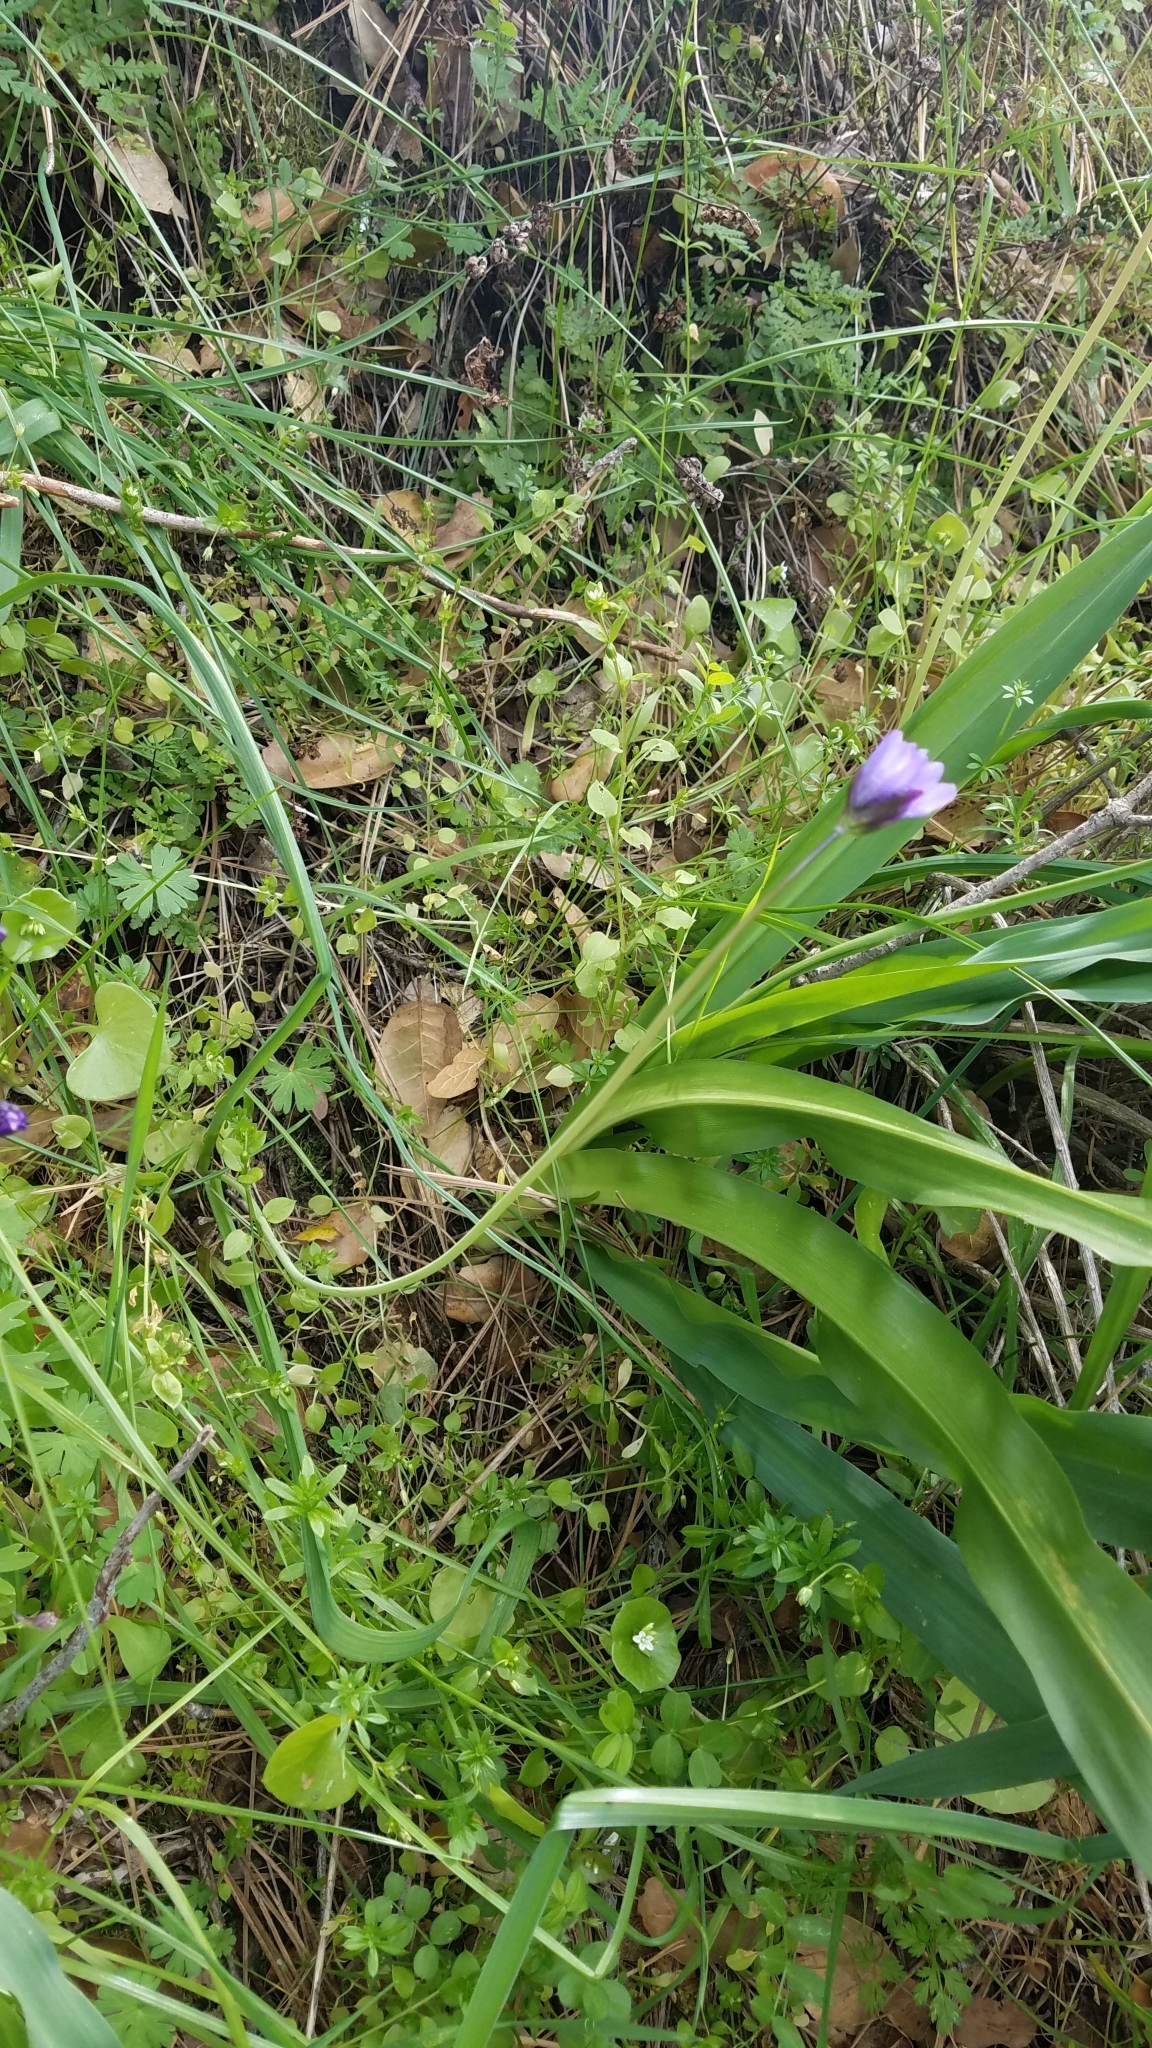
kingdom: Plantae
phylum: Tracheophyta
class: Liliopsida
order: Asparagales
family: Asparagaceae
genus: Dipterostemon
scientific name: Dipterostemon capitatus
